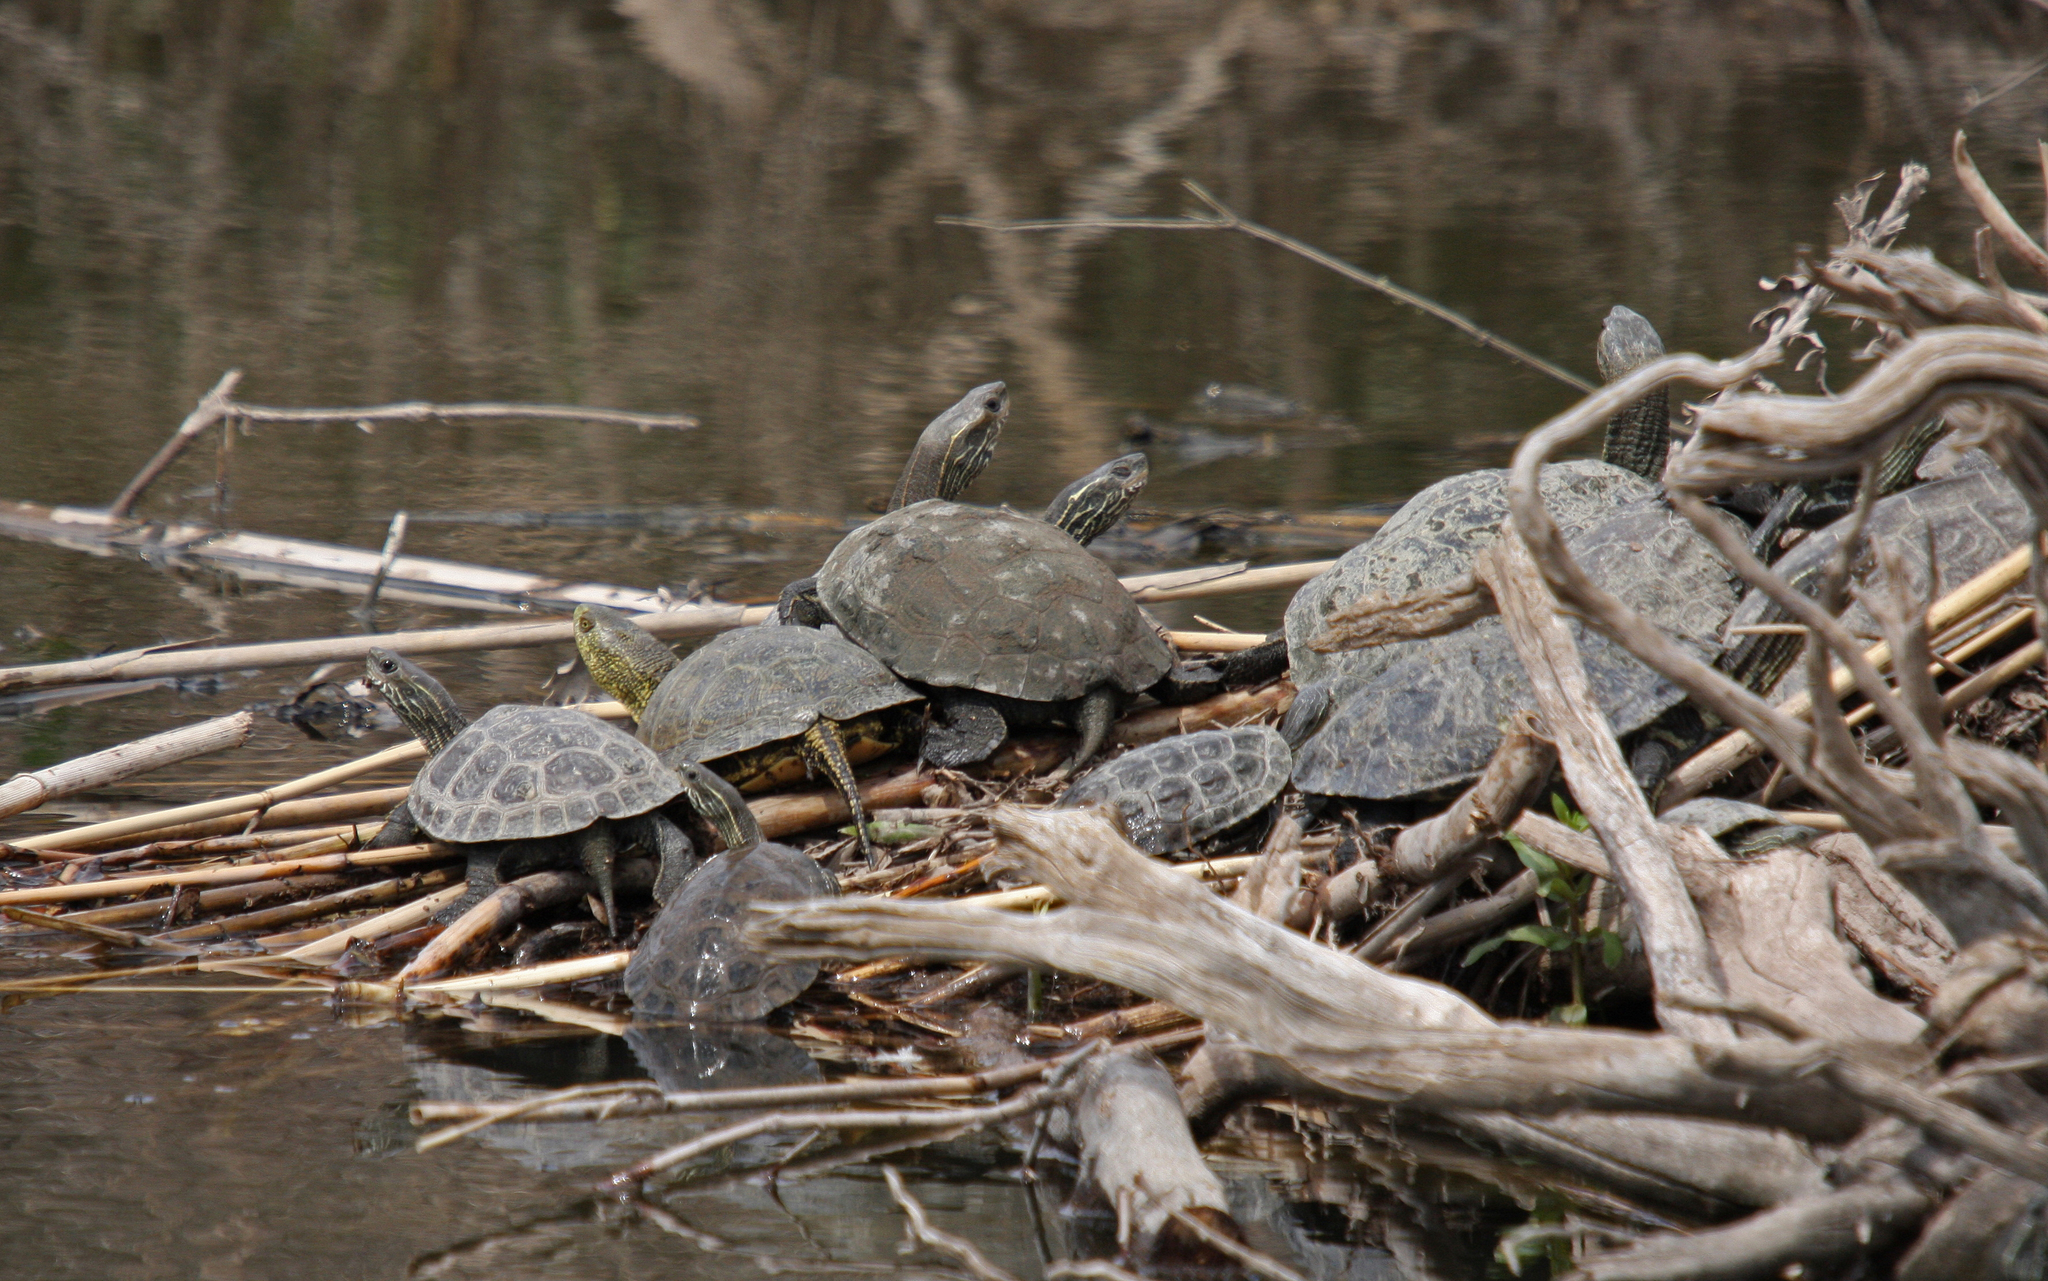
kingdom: Animalia
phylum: Chordata
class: Testudines
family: Emydidae
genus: Emys
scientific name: Emys orbicularis
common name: European pond turtle
